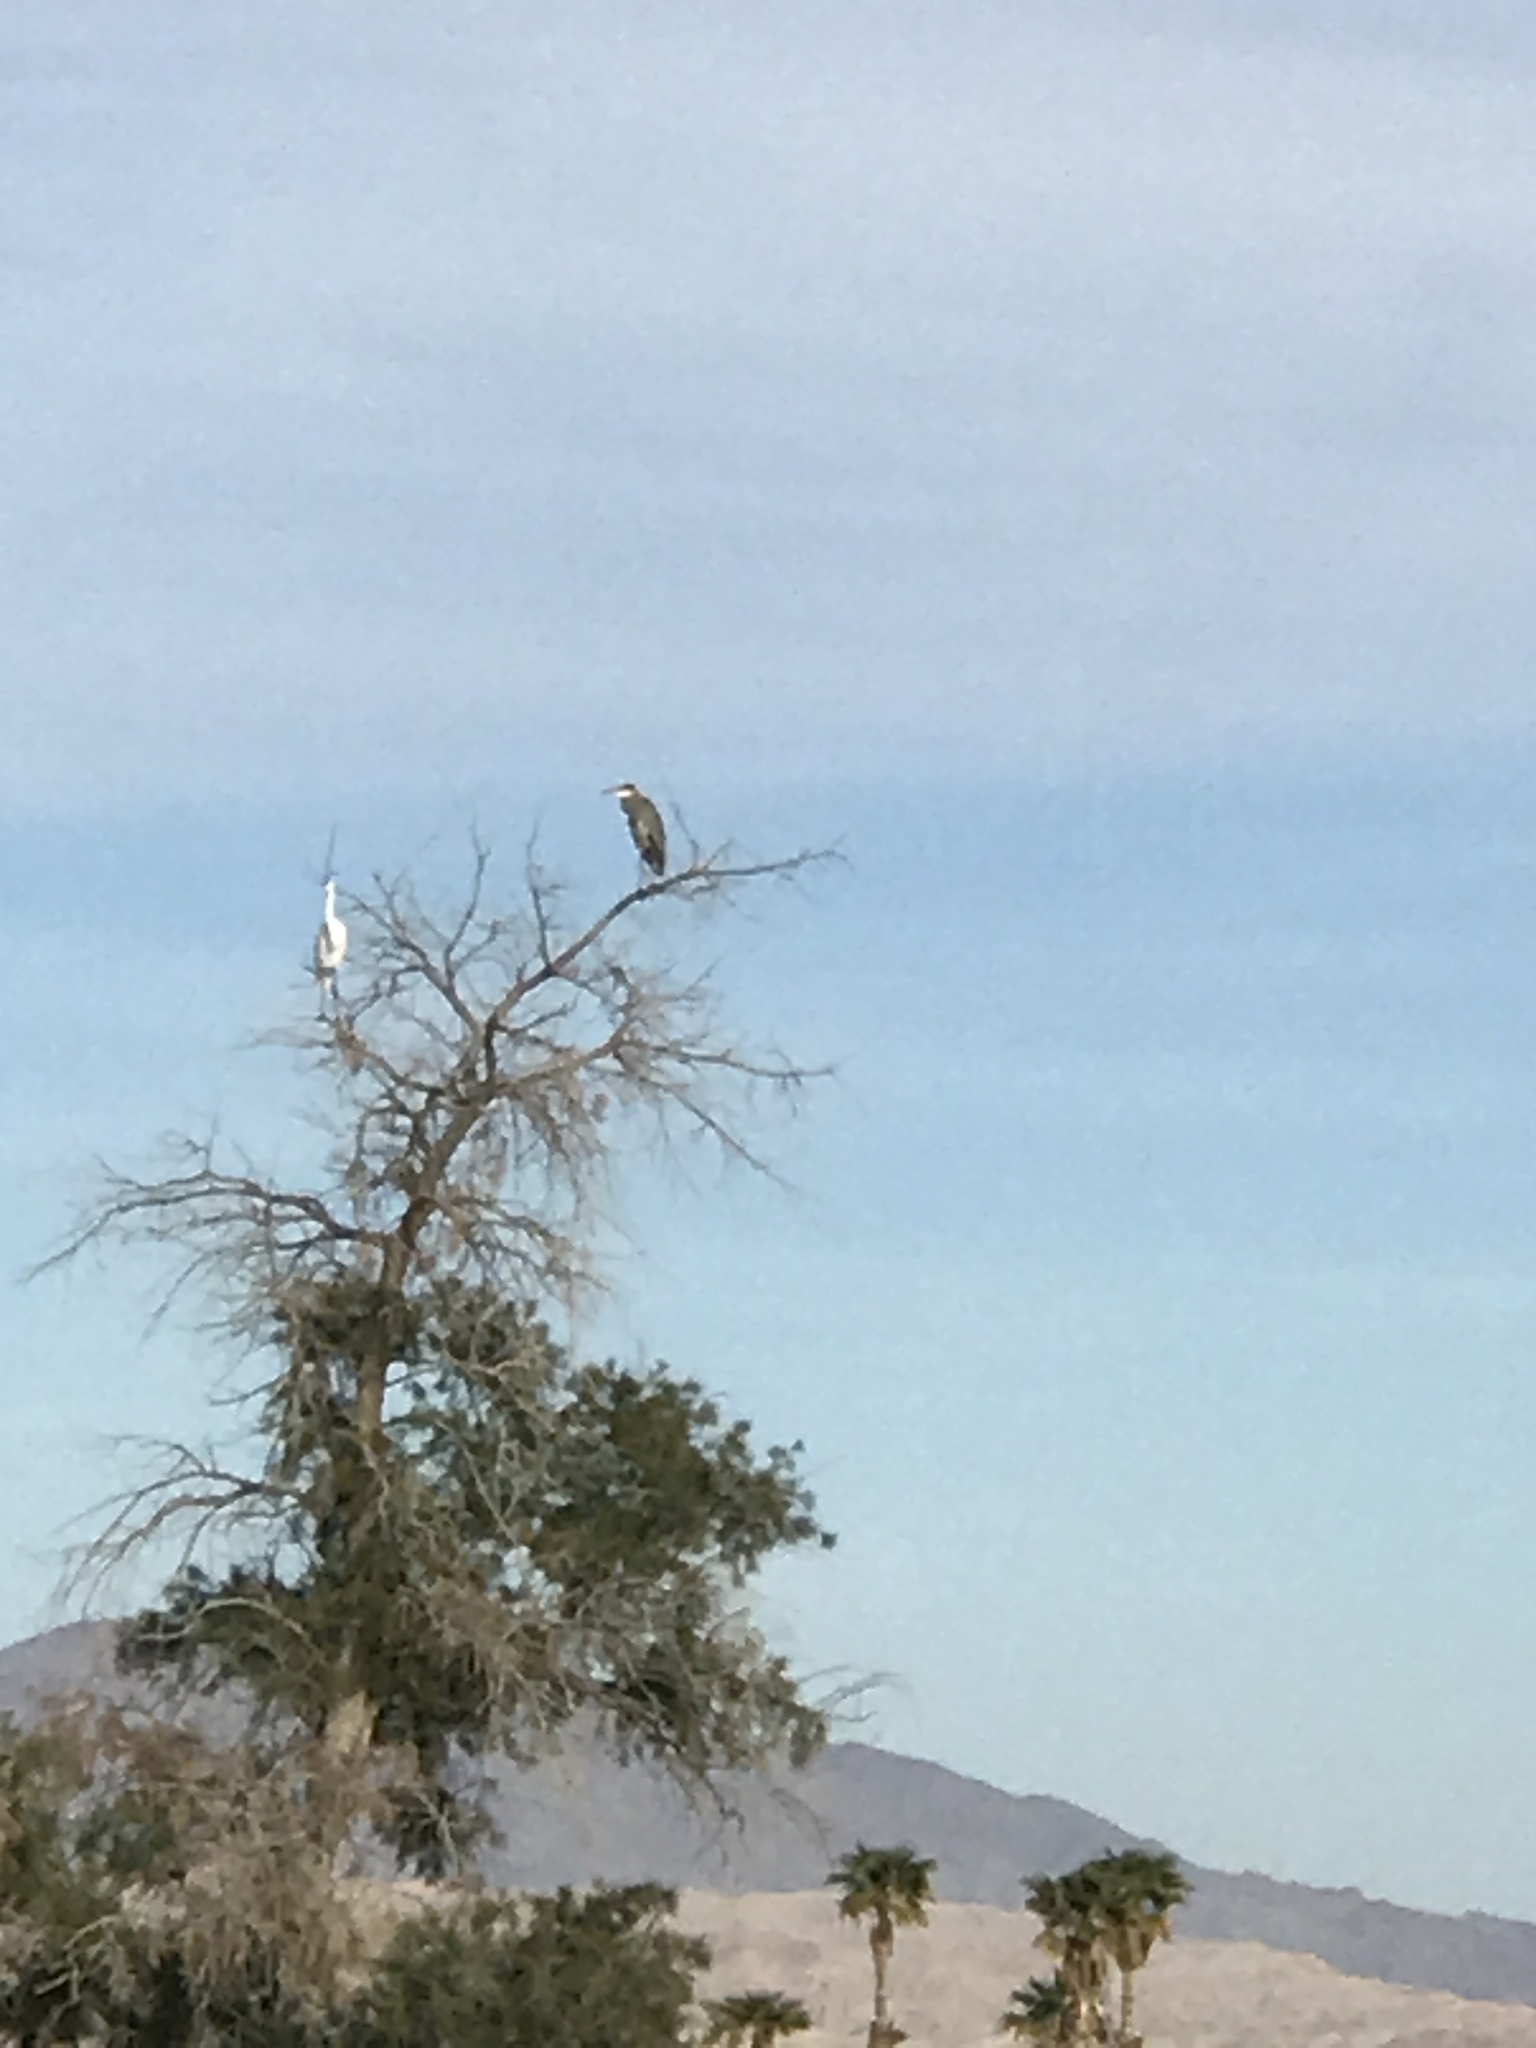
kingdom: Animalia
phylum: Chordata
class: Aves
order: Pelecaniformes
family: Ardeidae
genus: Ardea
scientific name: Ardea herodias
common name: Great blue heron
